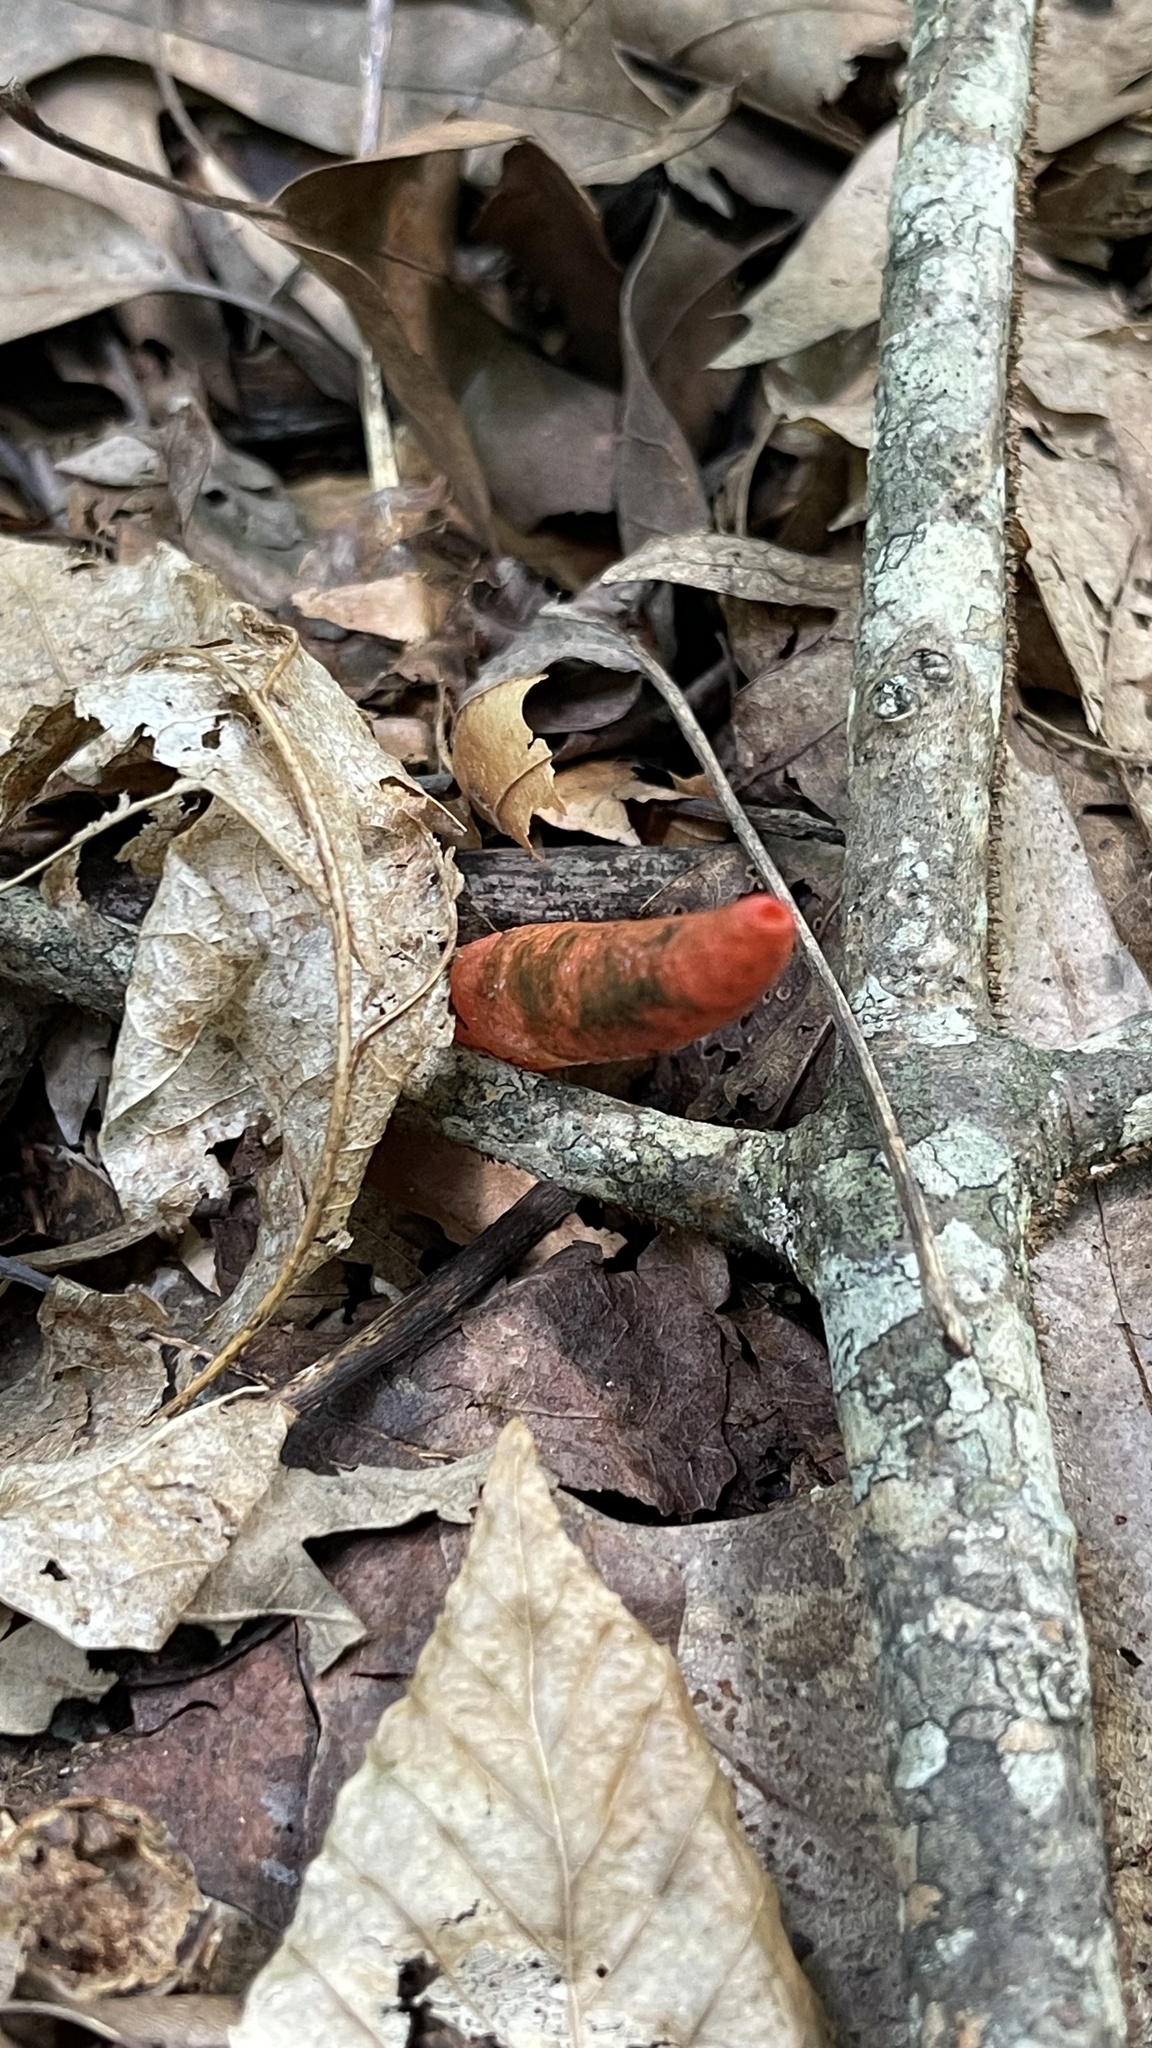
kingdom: Fungi
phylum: Basidiomycota
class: Agaricomycetes
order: Phallales
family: Phallaceae
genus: Mutinus
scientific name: Mutinus elegans
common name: Devil's dipstick
